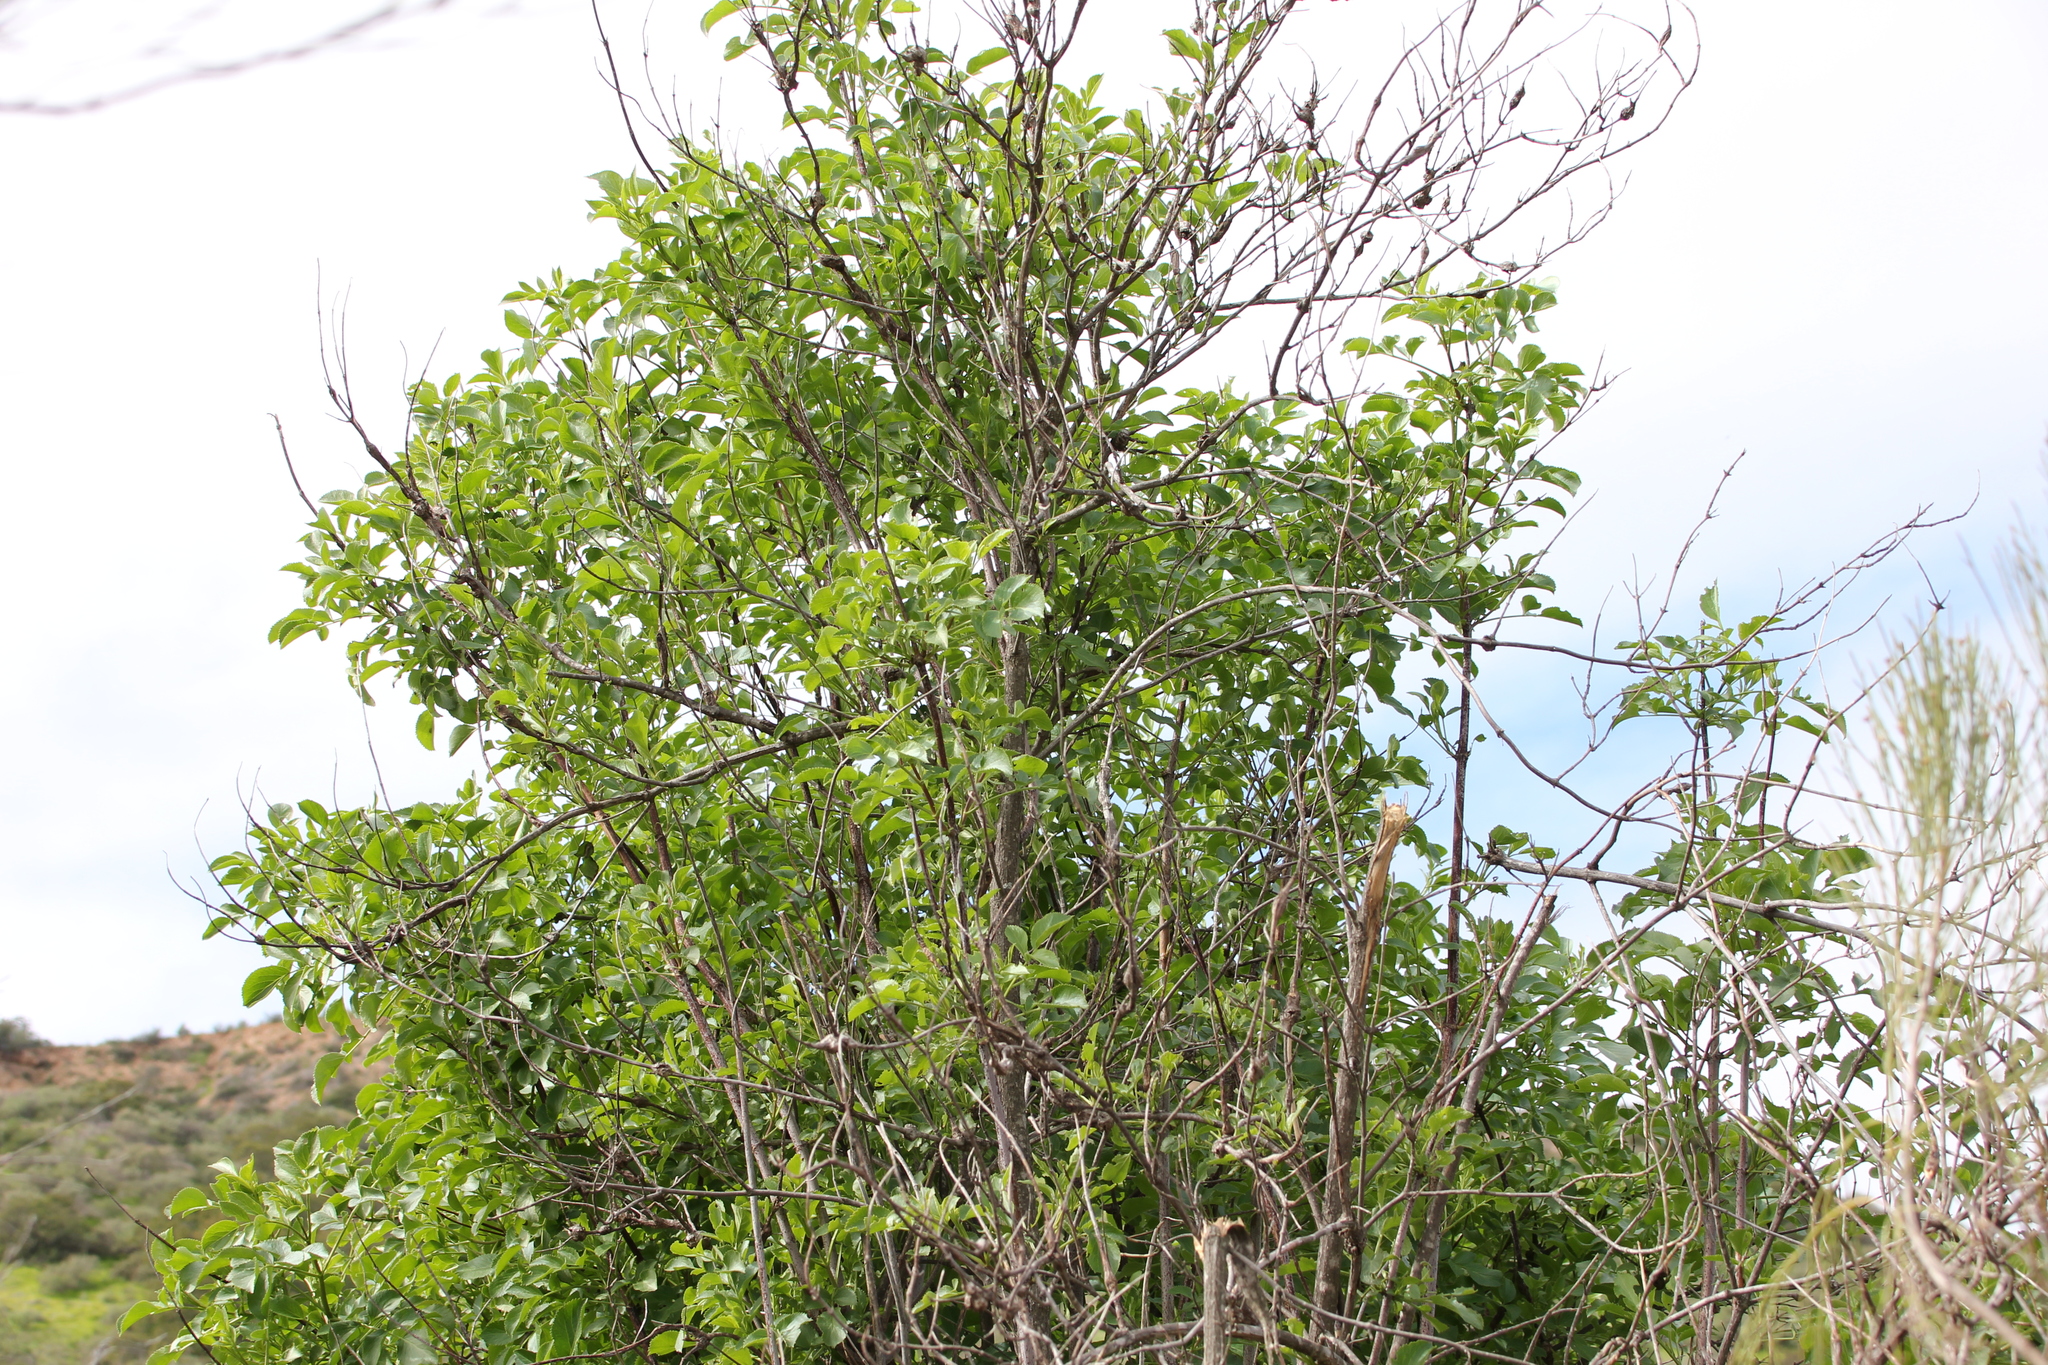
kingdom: Plantae
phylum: Tracheophyta
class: Magnoliopsida
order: Dipsacales
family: Viburnaceae
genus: Sambucus
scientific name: Sambucus cerulea
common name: Blue elder
